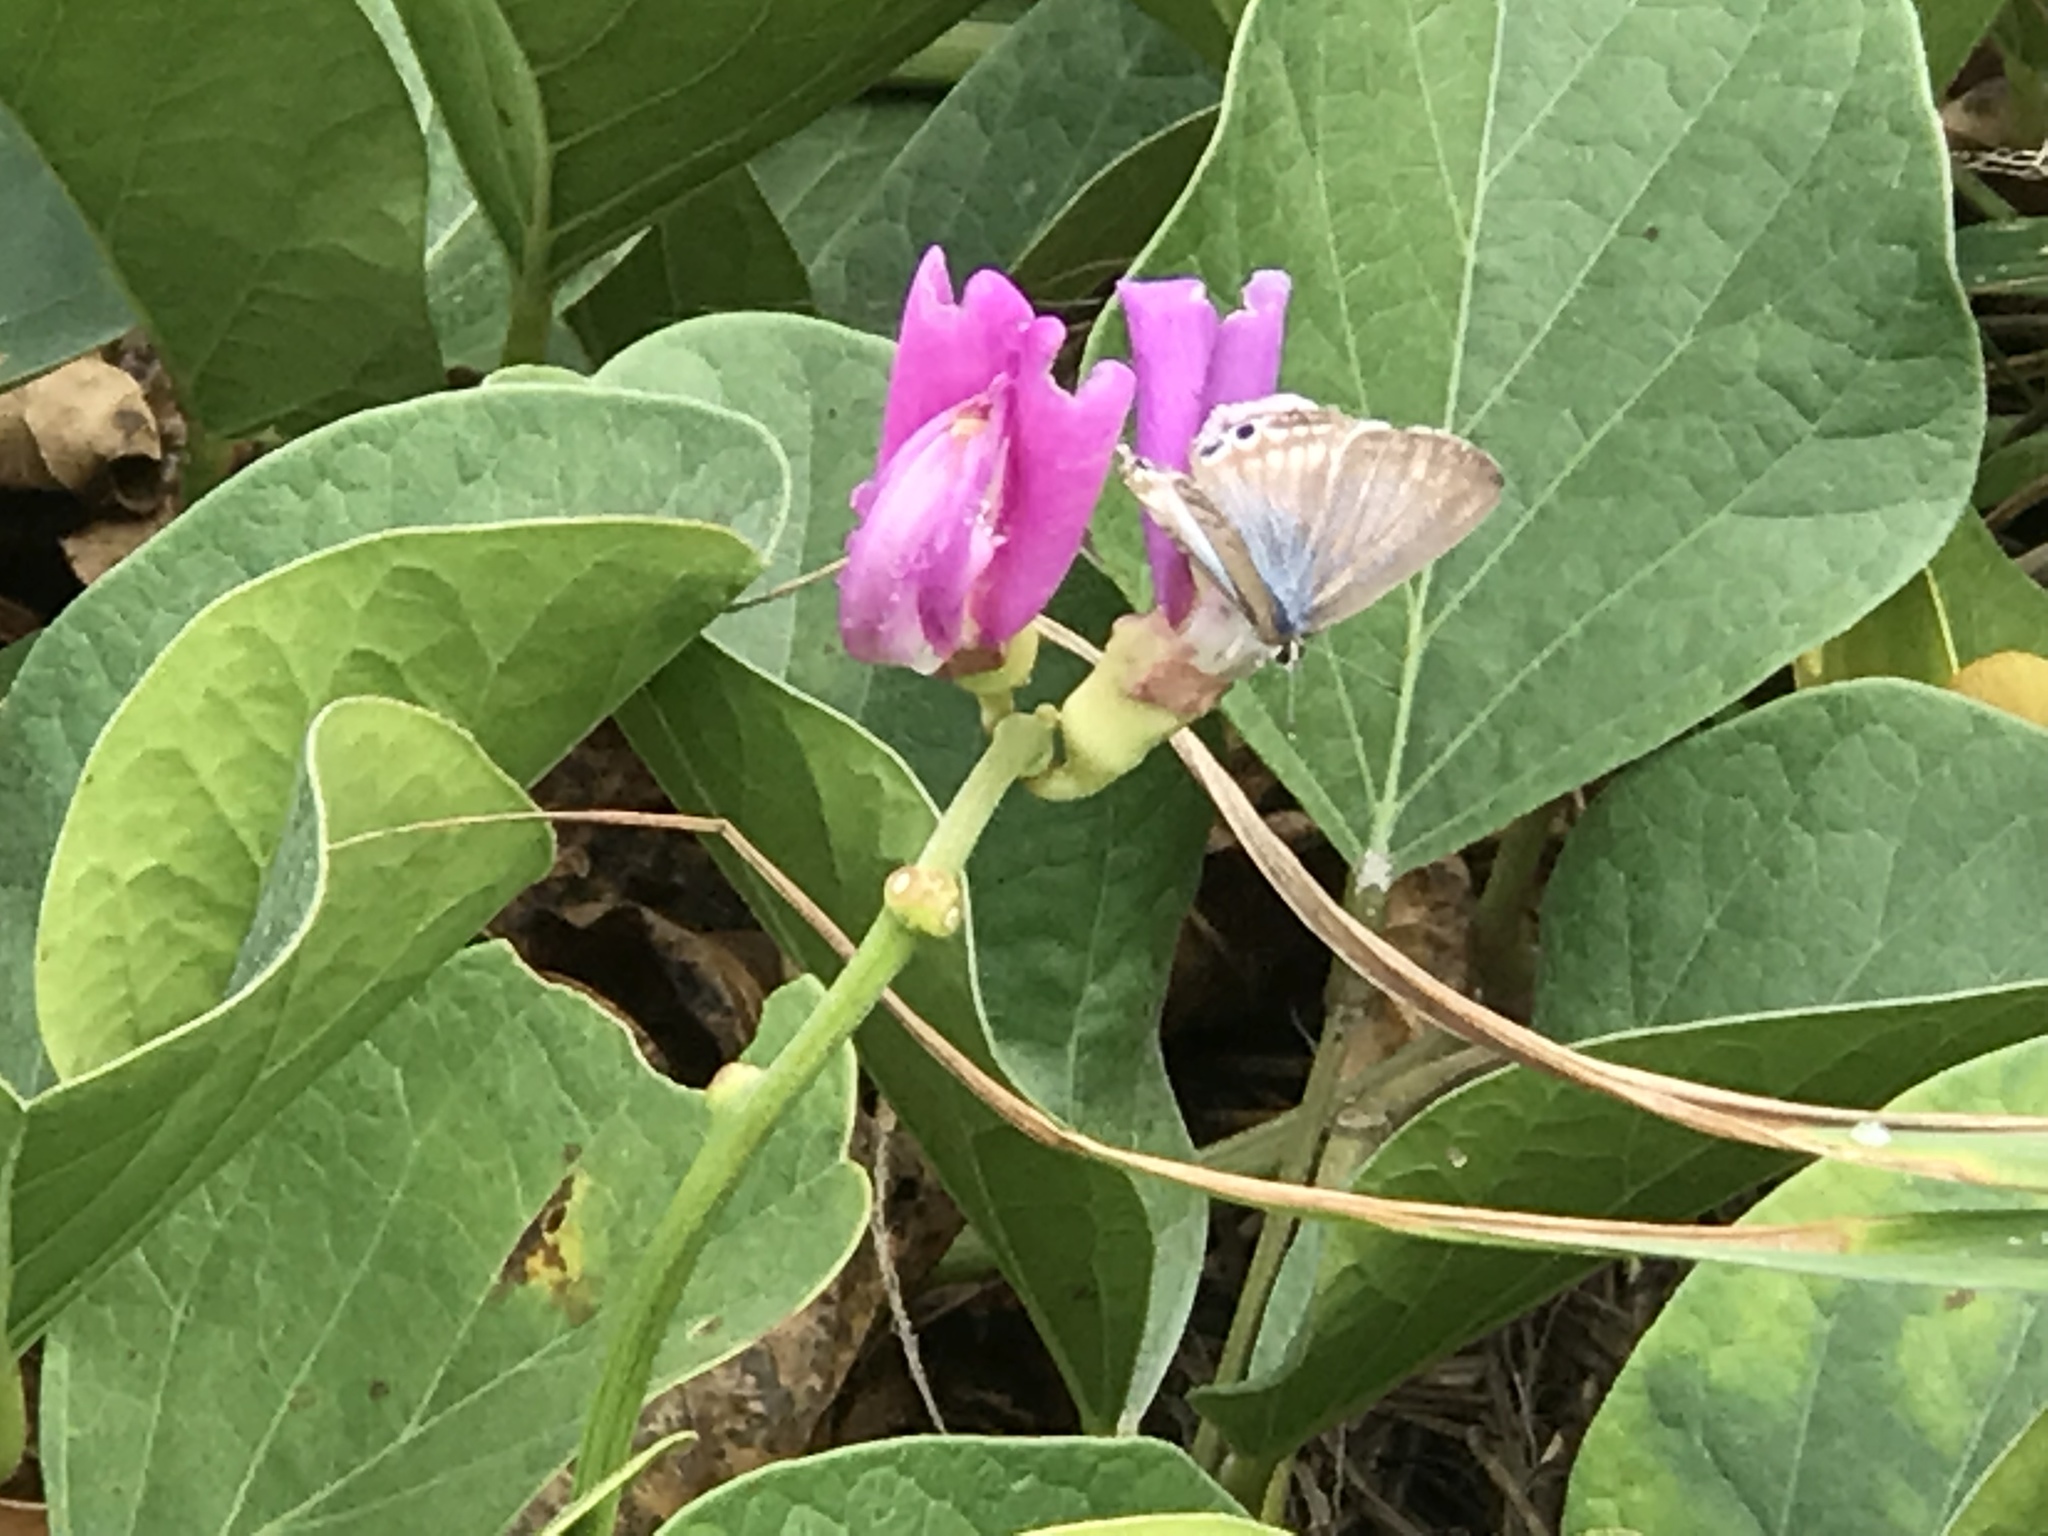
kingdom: Plantae
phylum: Tracheophyta
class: Magnoliopsida
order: Fabales
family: Fabaceae
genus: Canavalia
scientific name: Canavalia rosea
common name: Beach-bean
